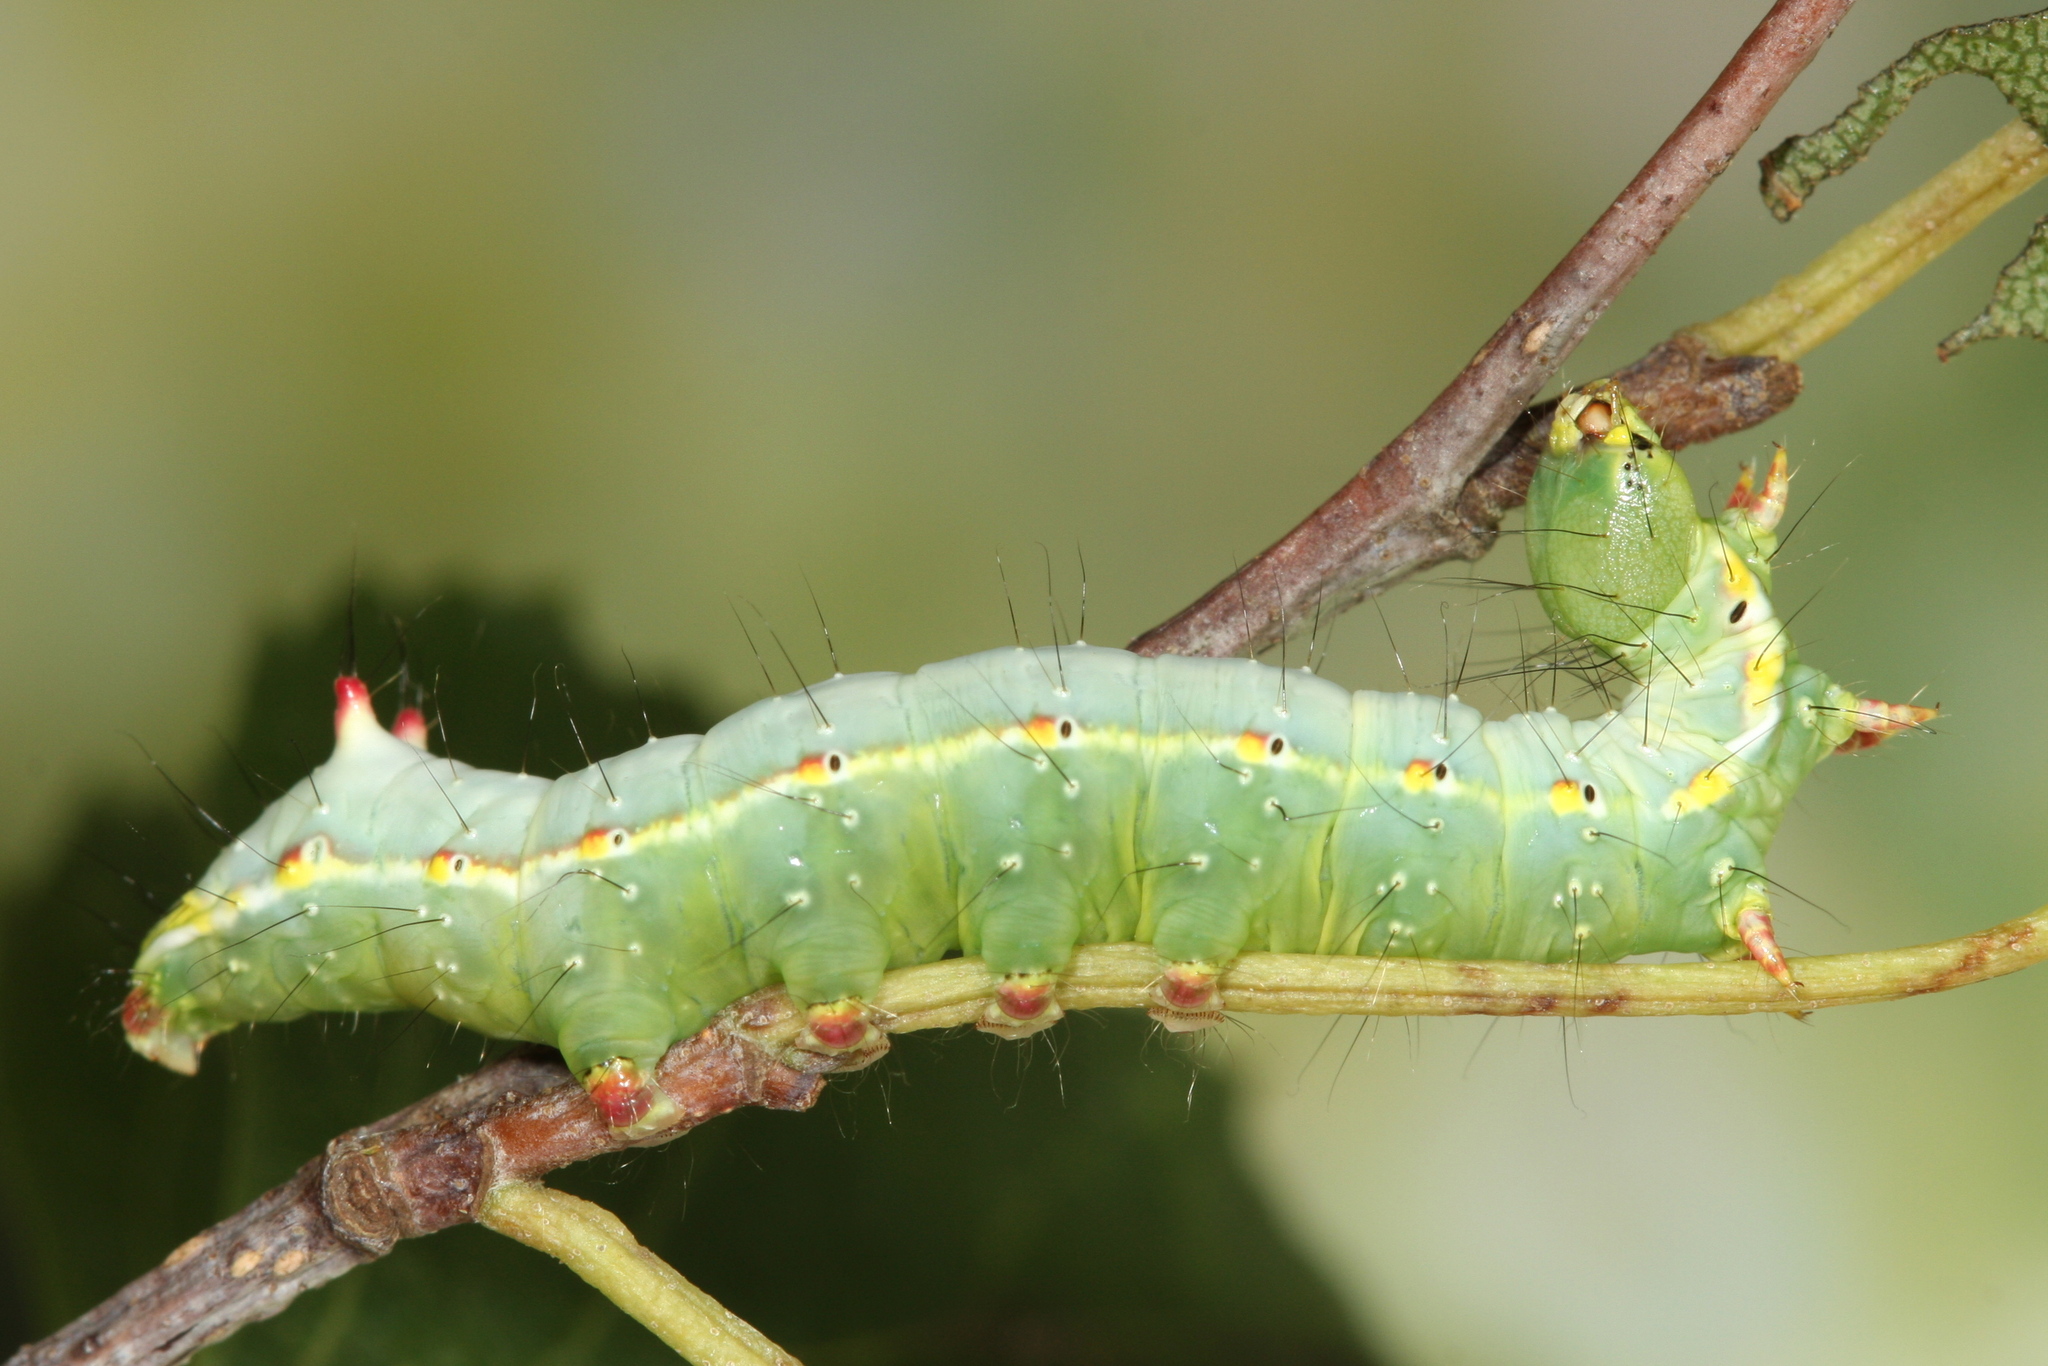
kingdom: Animalia
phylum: Arthropoda
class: Insecta
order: Lepidoptera
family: Notodontidae
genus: Ptilodon
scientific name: Ptilodon capucina
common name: Coxcomb prominent
